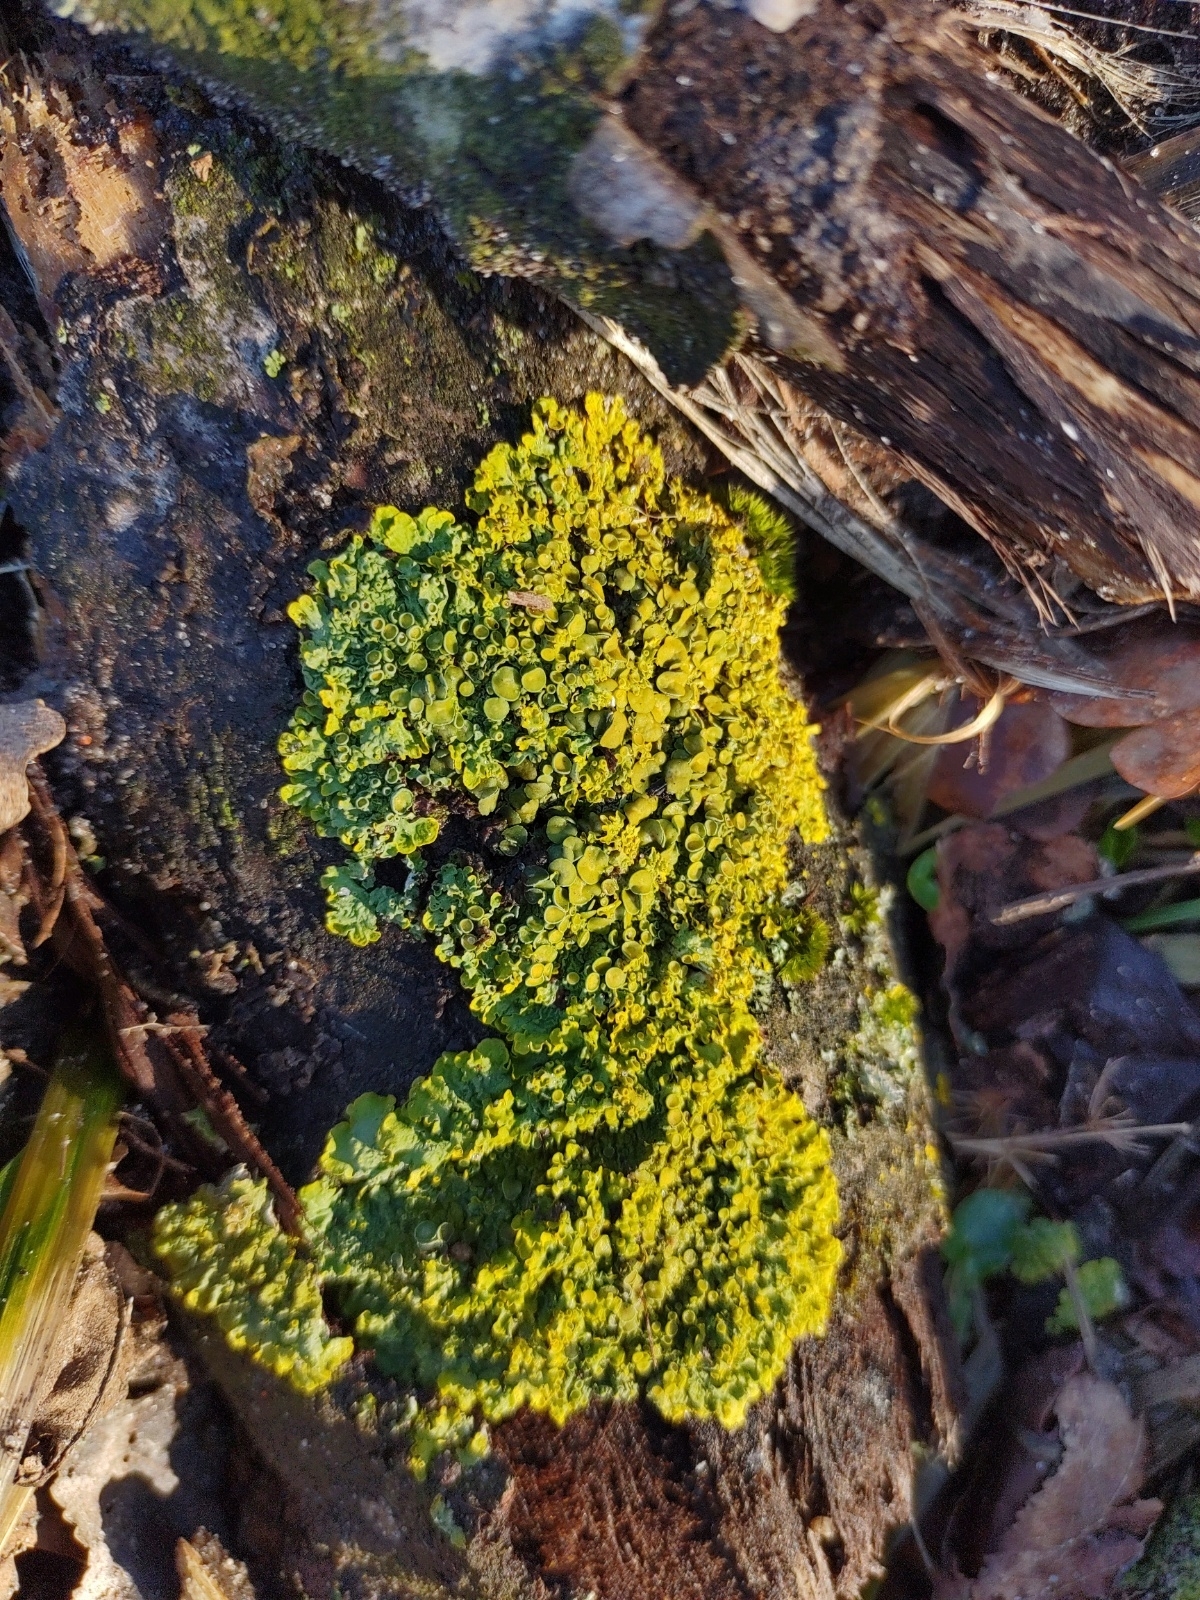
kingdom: Fungi
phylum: Ascomycota
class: Lecanoromycetes
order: Teloschistales
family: Teloschistaceae
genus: Xanthoria
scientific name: Xanthoria parietina
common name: Common orange lichen
